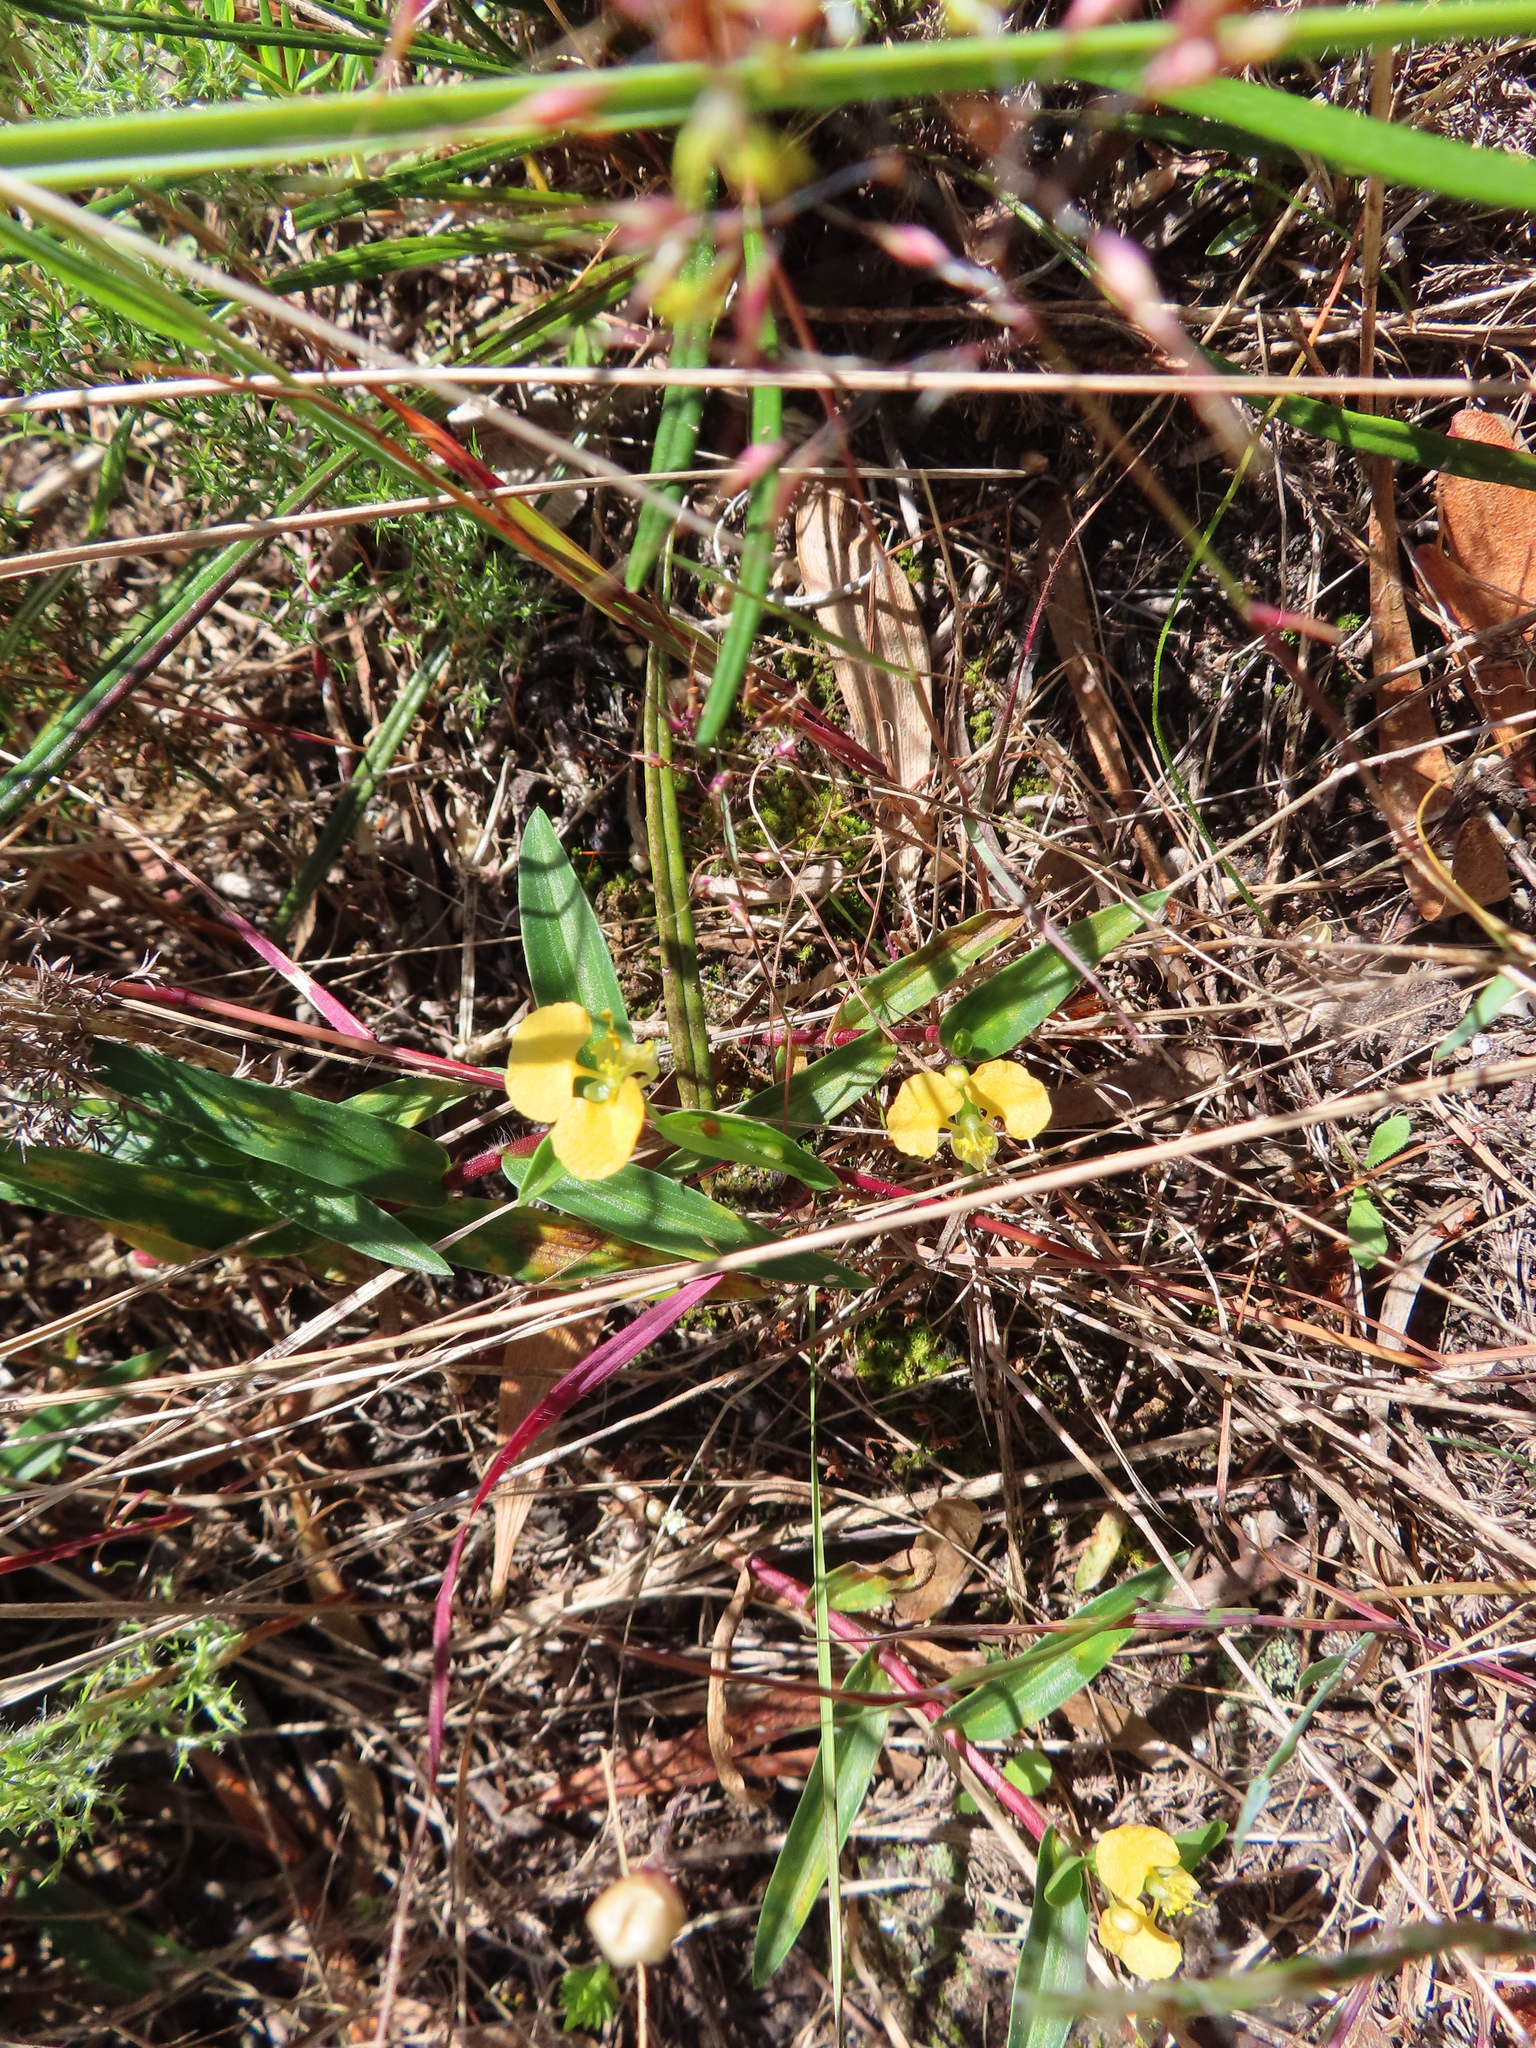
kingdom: Plantae
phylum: Tracheophyta
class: Liliopsida
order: Commelinales
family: Commelinaceae
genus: Commelina
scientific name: Commelina africana
